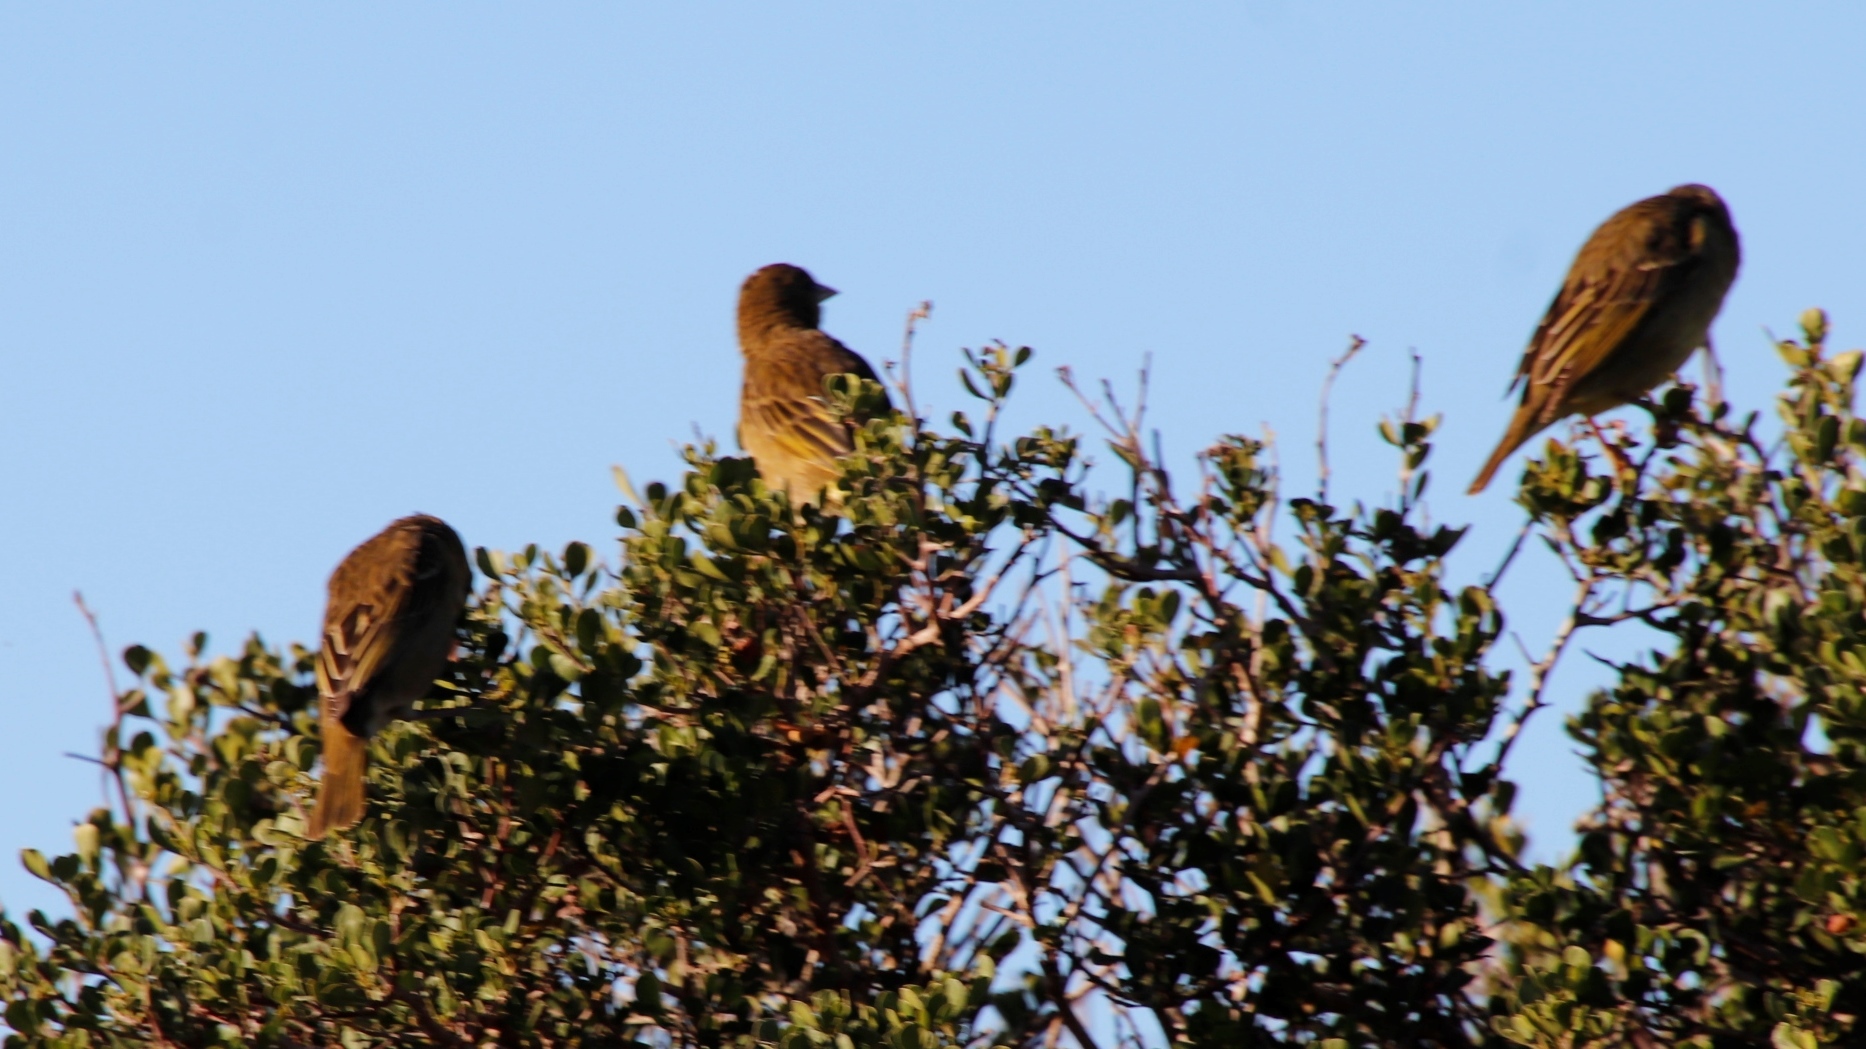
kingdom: Animalia
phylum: Chordata
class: Aves
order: Passeriformes
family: Ploceidae
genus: Ploceus
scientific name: Ploceus capensis
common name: Cape weaver
